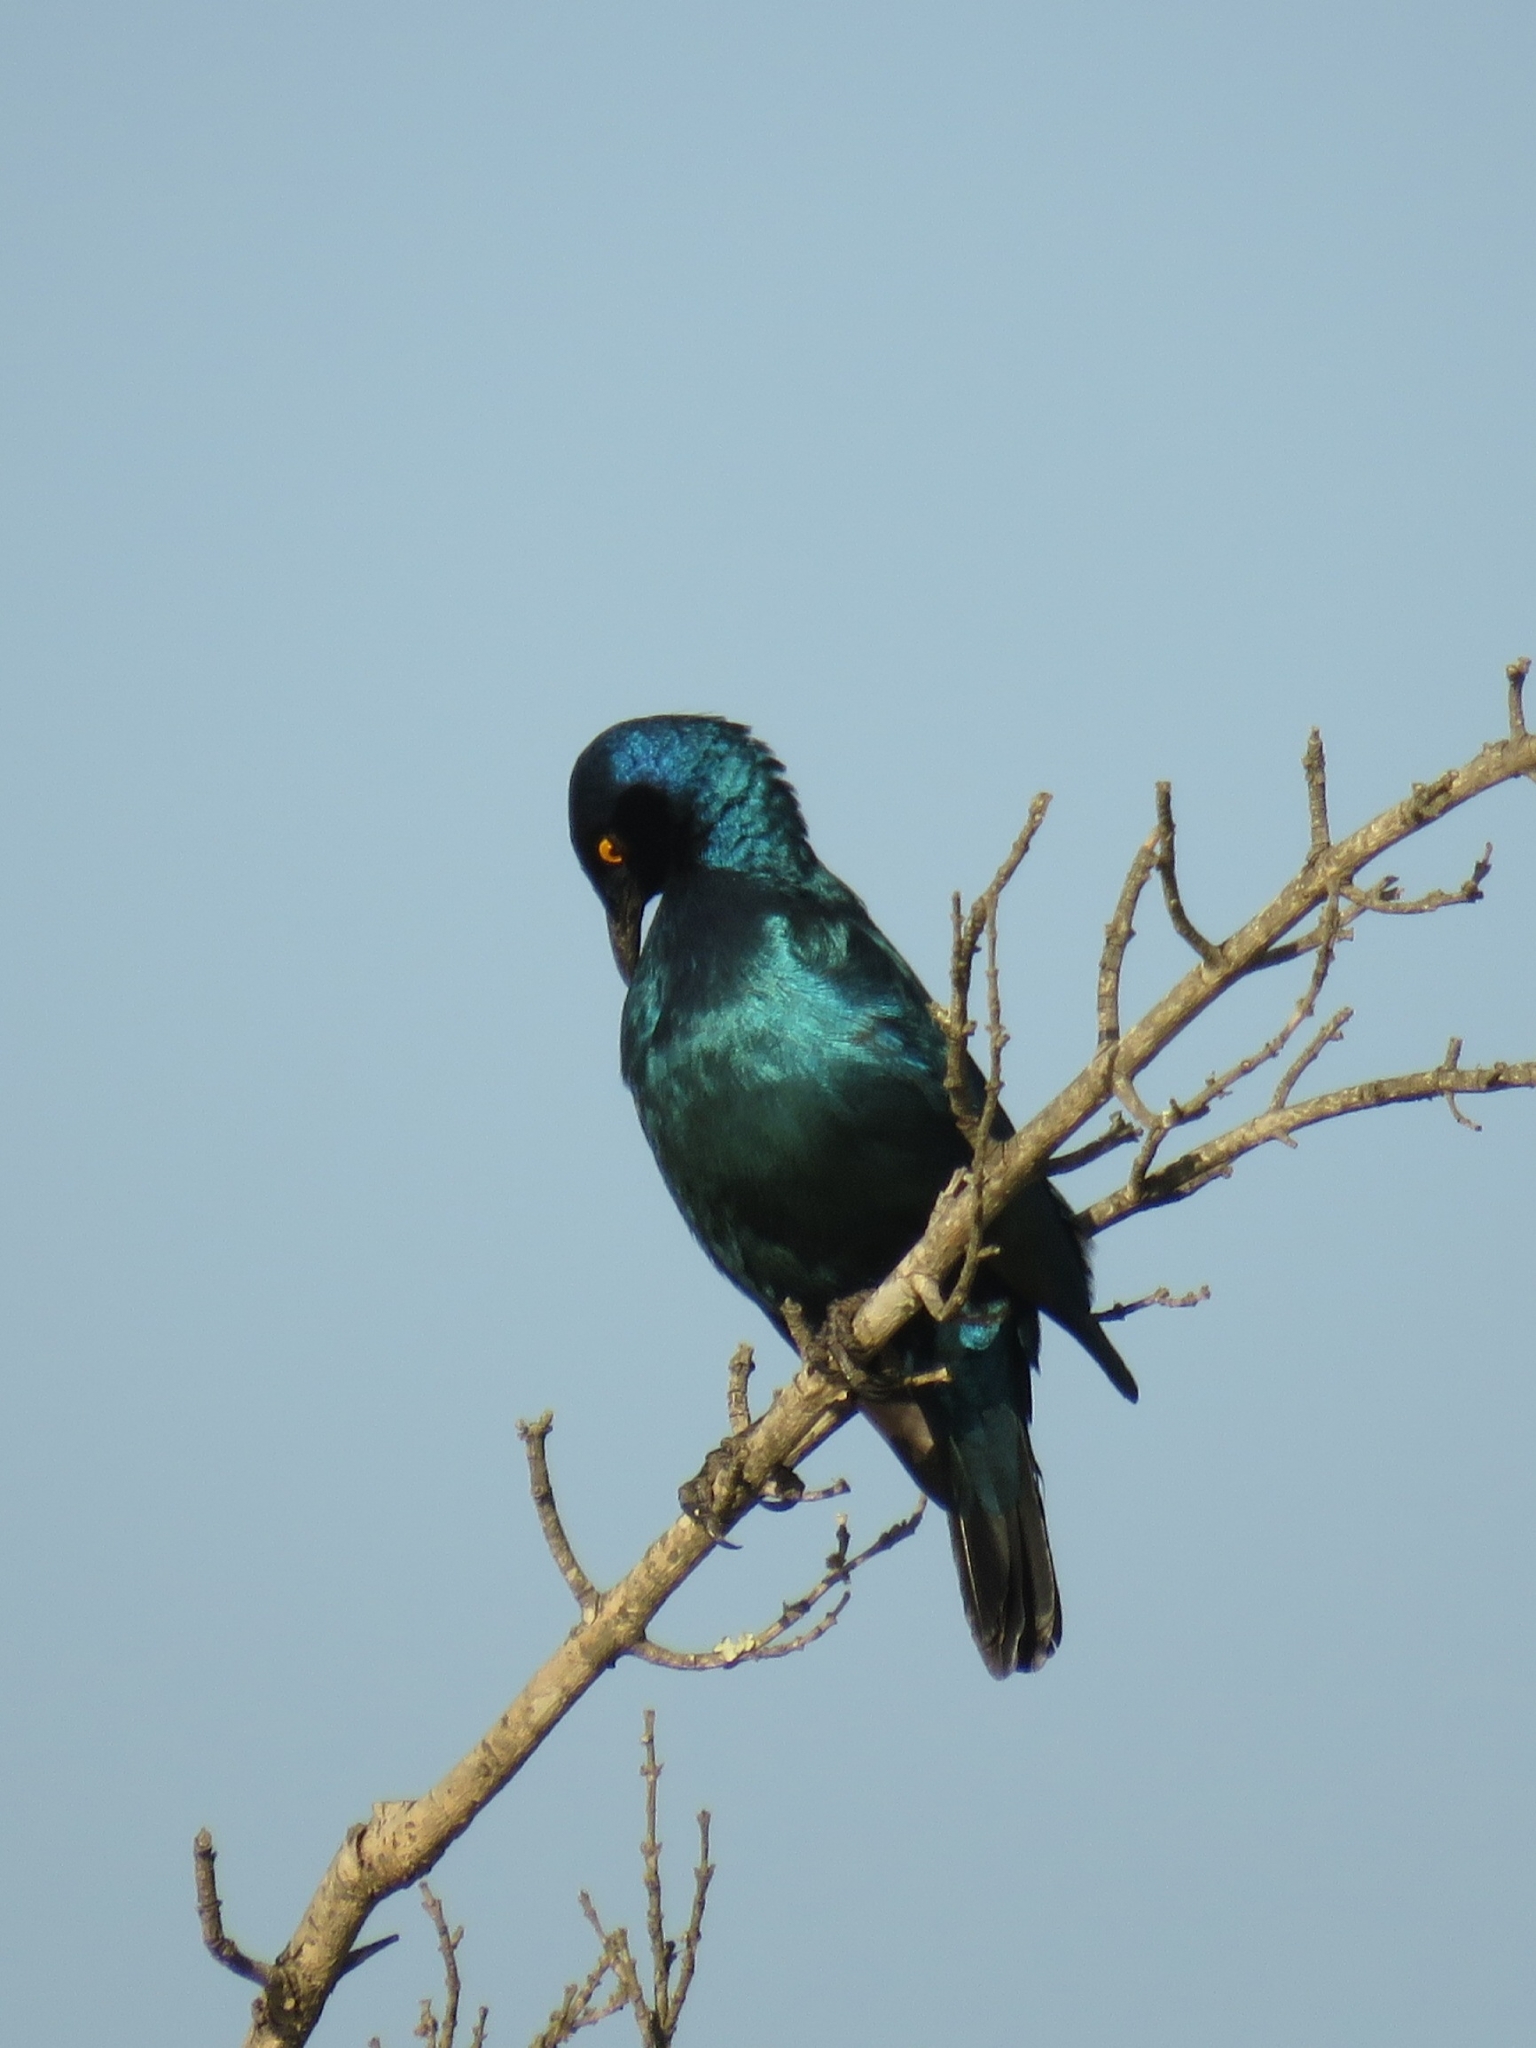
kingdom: Animalia
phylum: Chordata
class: Aves
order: Passeriformes
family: Sturnidae
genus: Lamprotornis
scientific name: Lamprotornis nitens
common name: Cape starling
